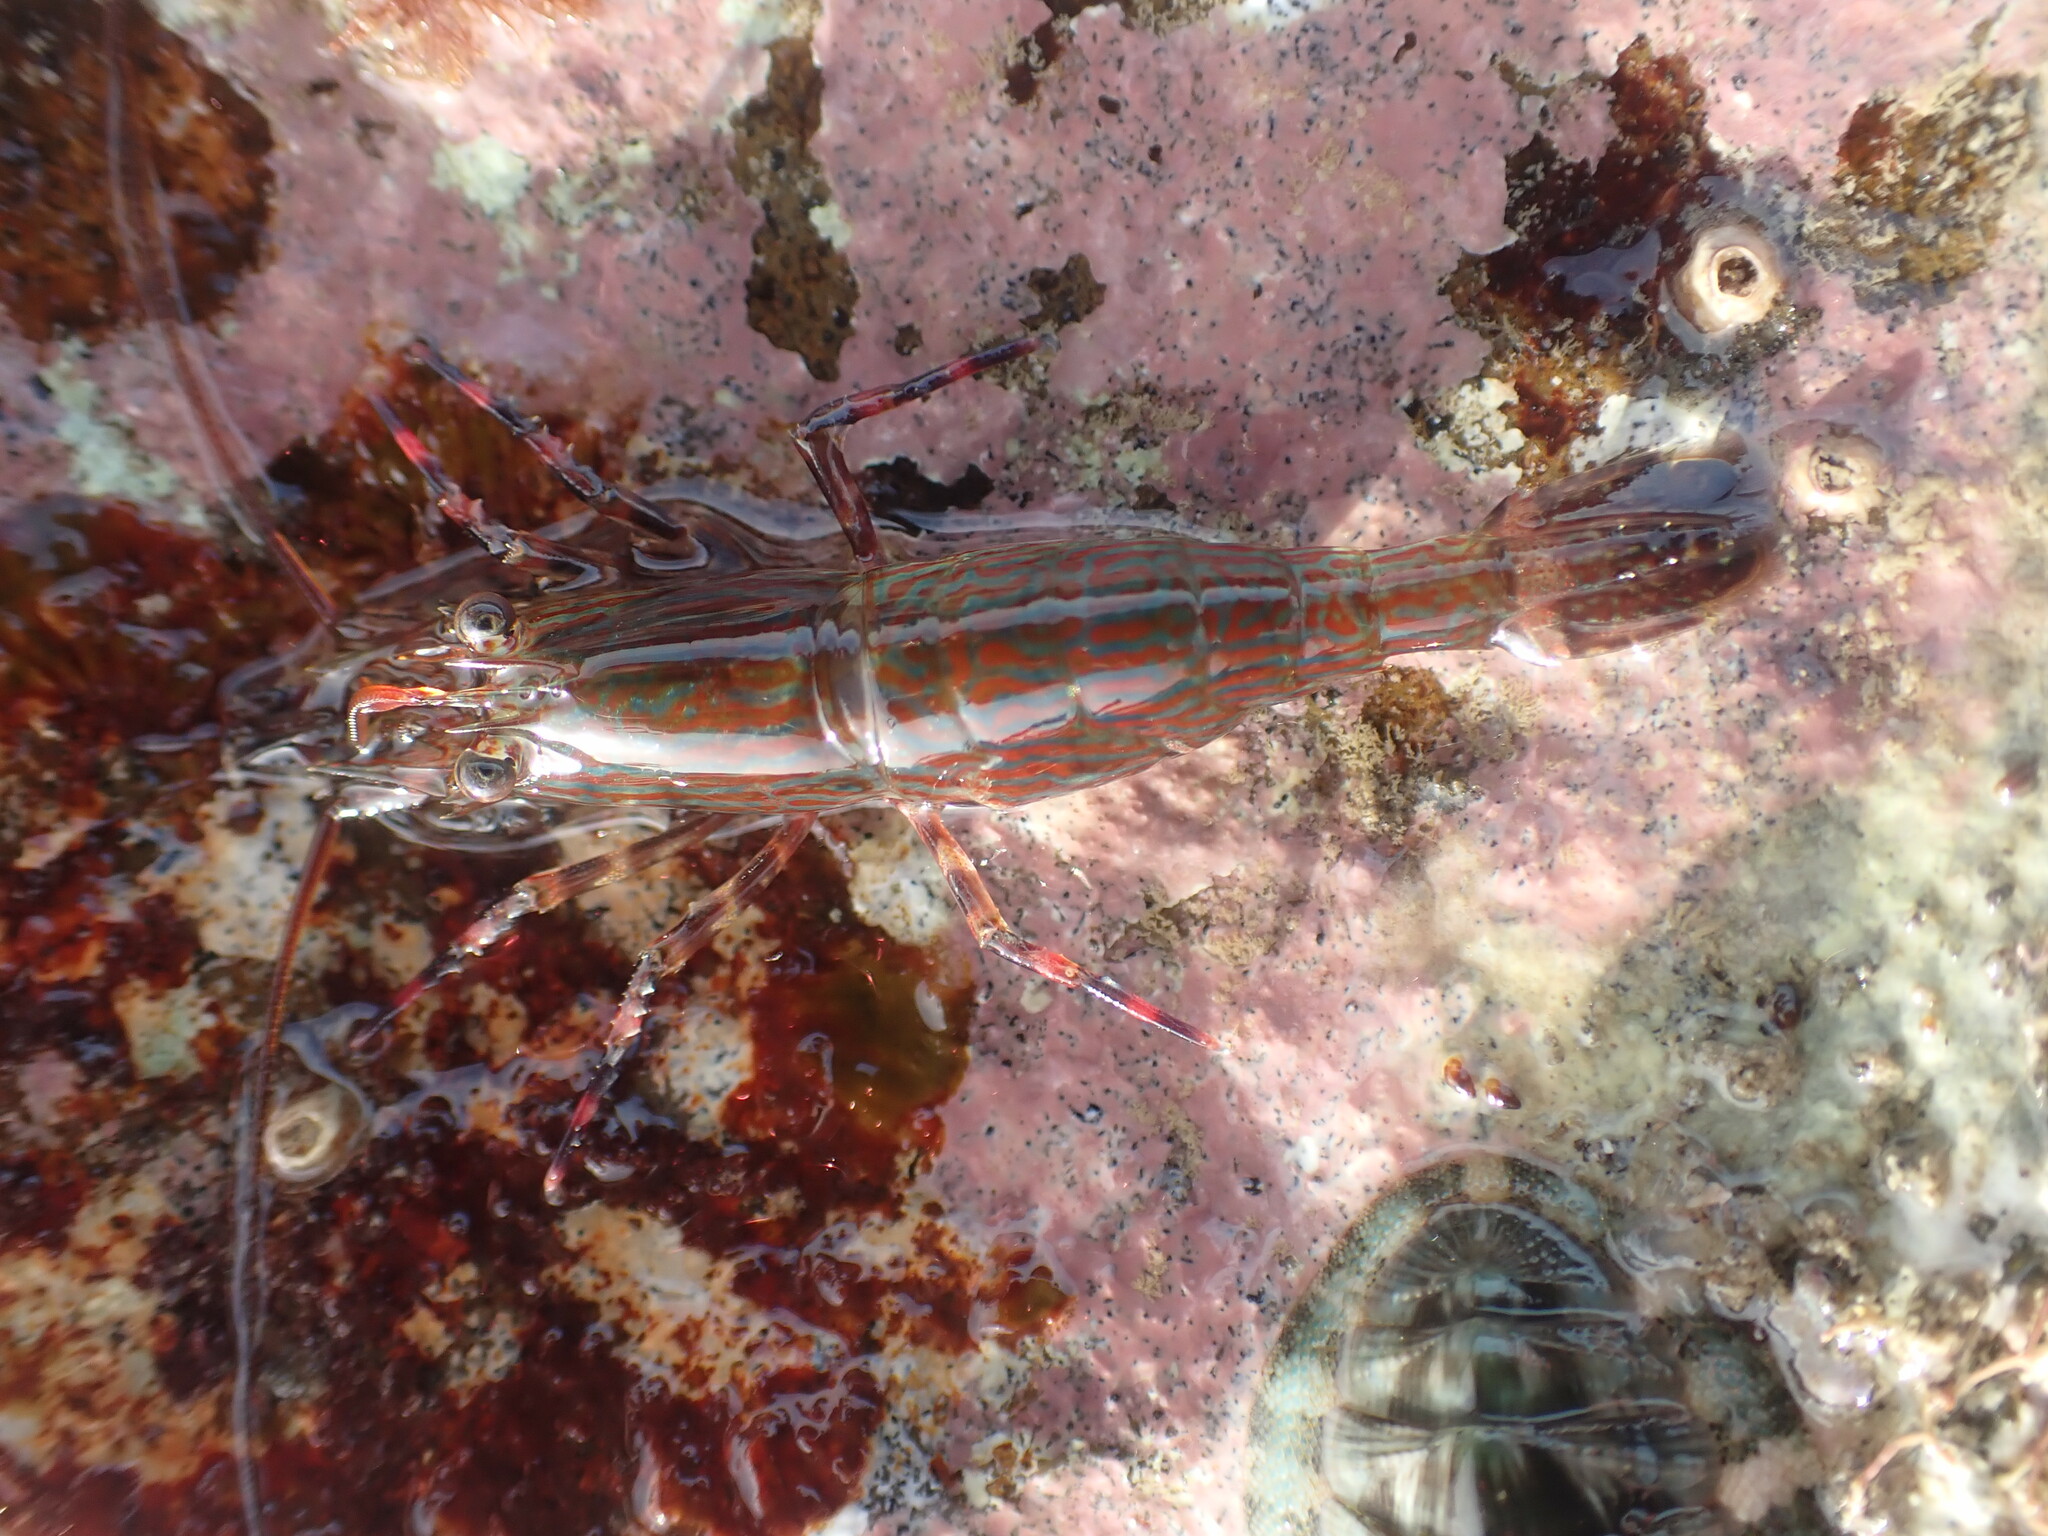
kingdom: Animalia
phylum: Arthropoda
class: Malacostraca
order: Decapoda
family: Hippolytidae
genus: Alope
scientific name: Alope spinifrons
